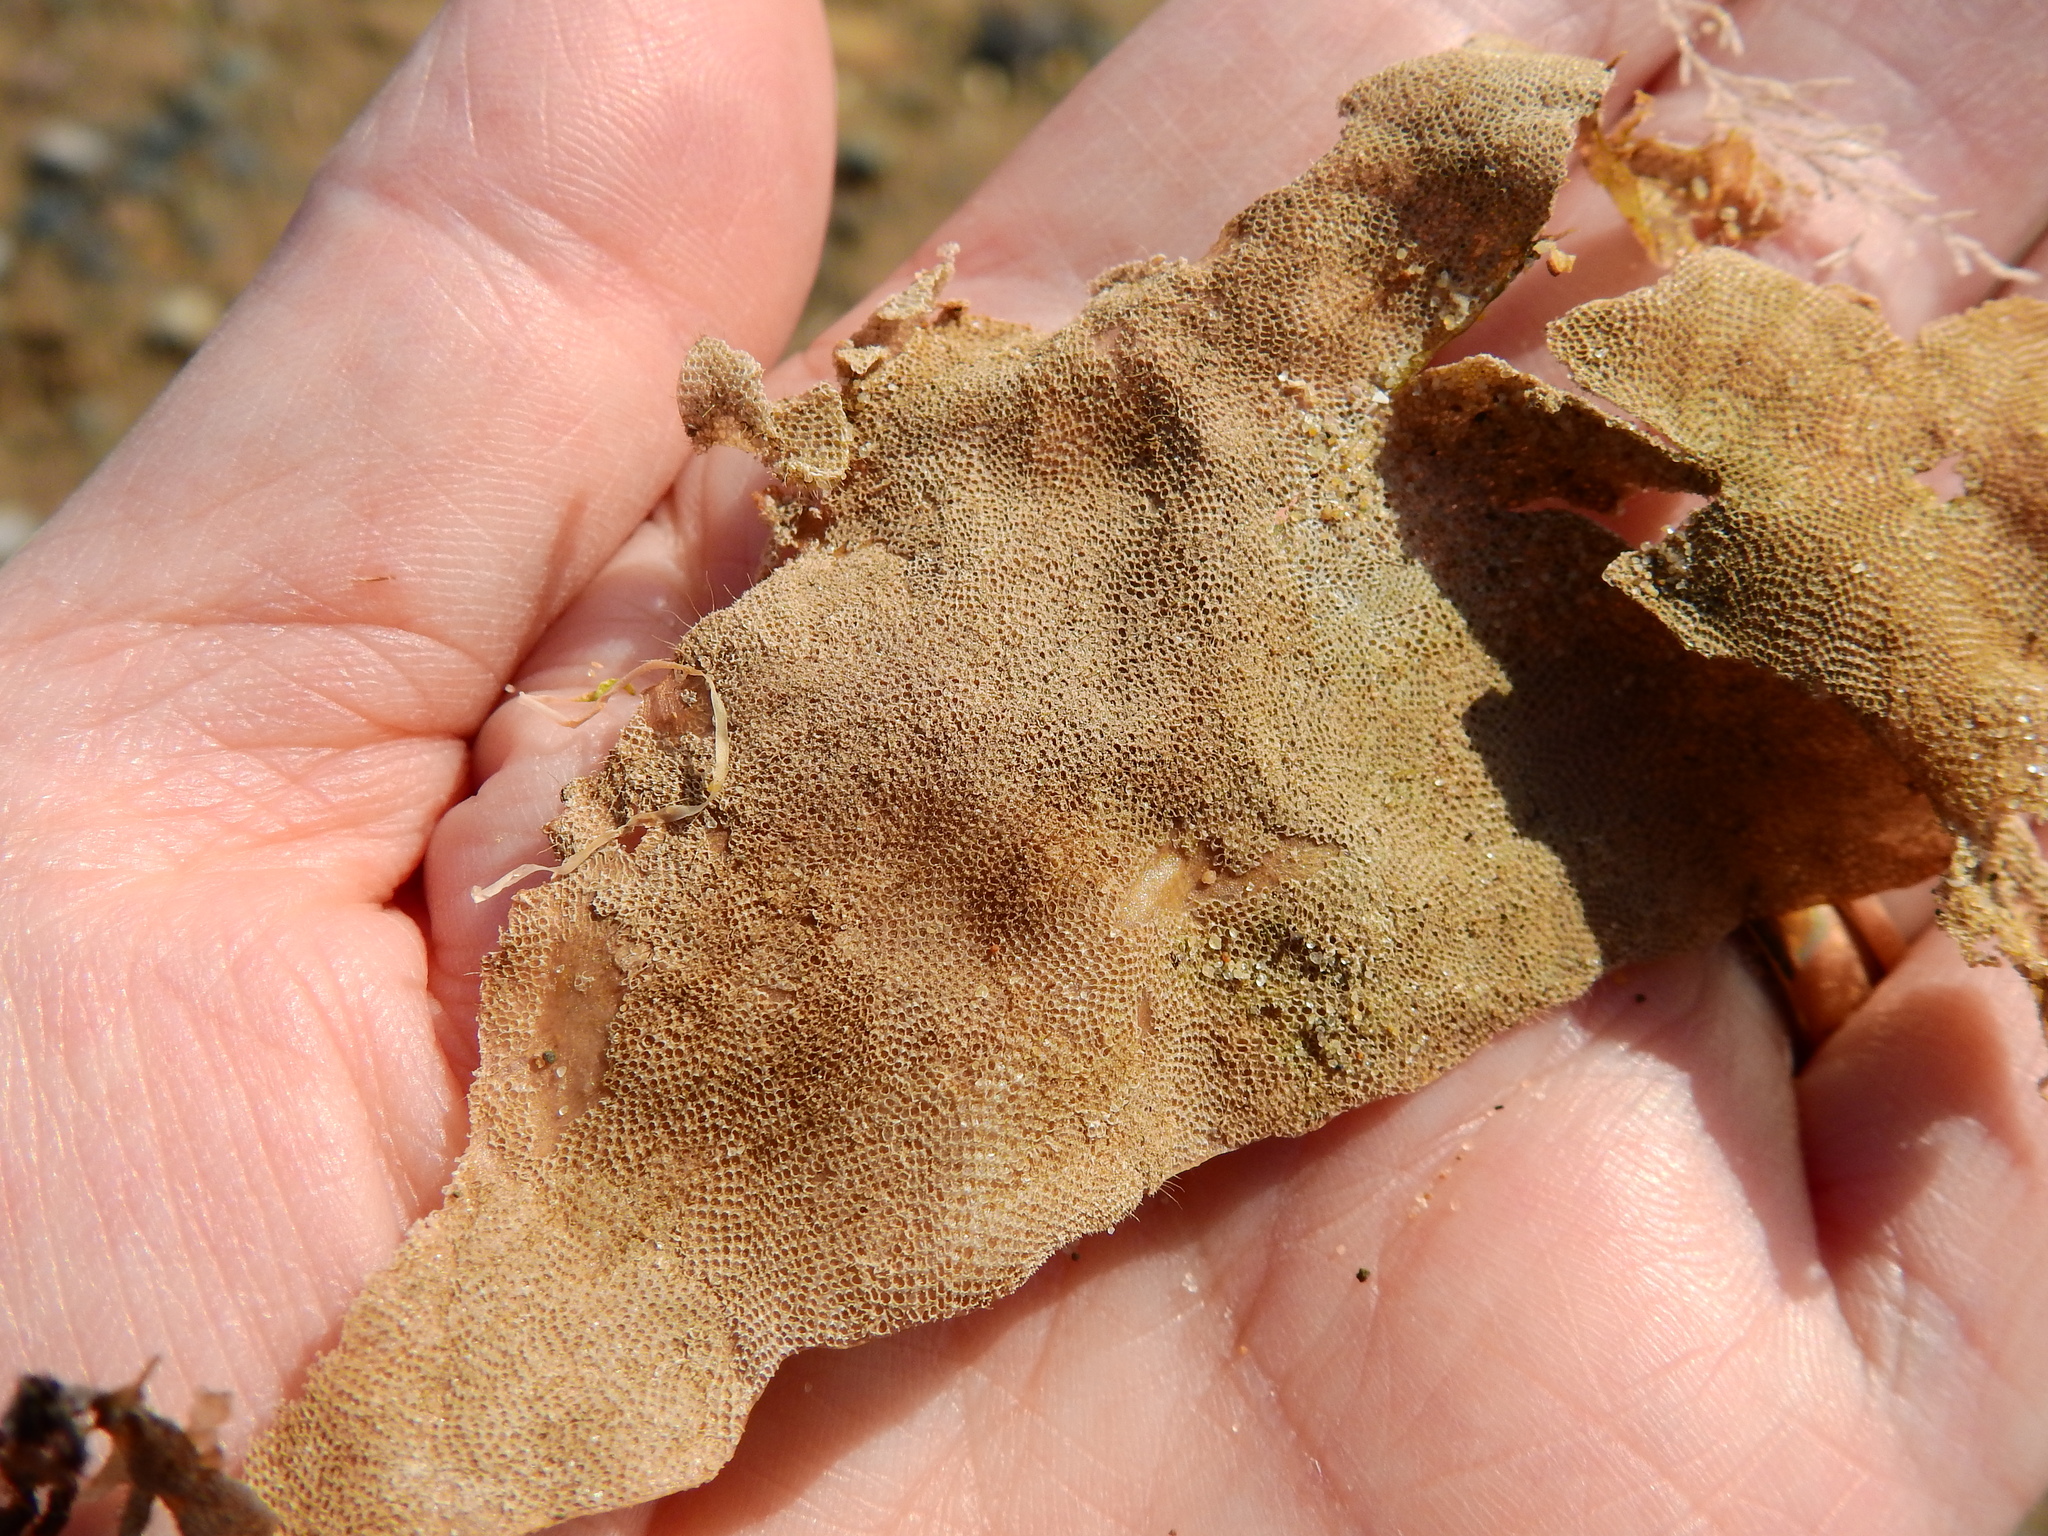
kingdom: Animalia
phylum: Bryozoa
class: Gymnolaemata
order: Cheilostomatida
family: Electridae
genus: Electra
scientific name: Electra pilosa
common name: Hairy sea-mat
